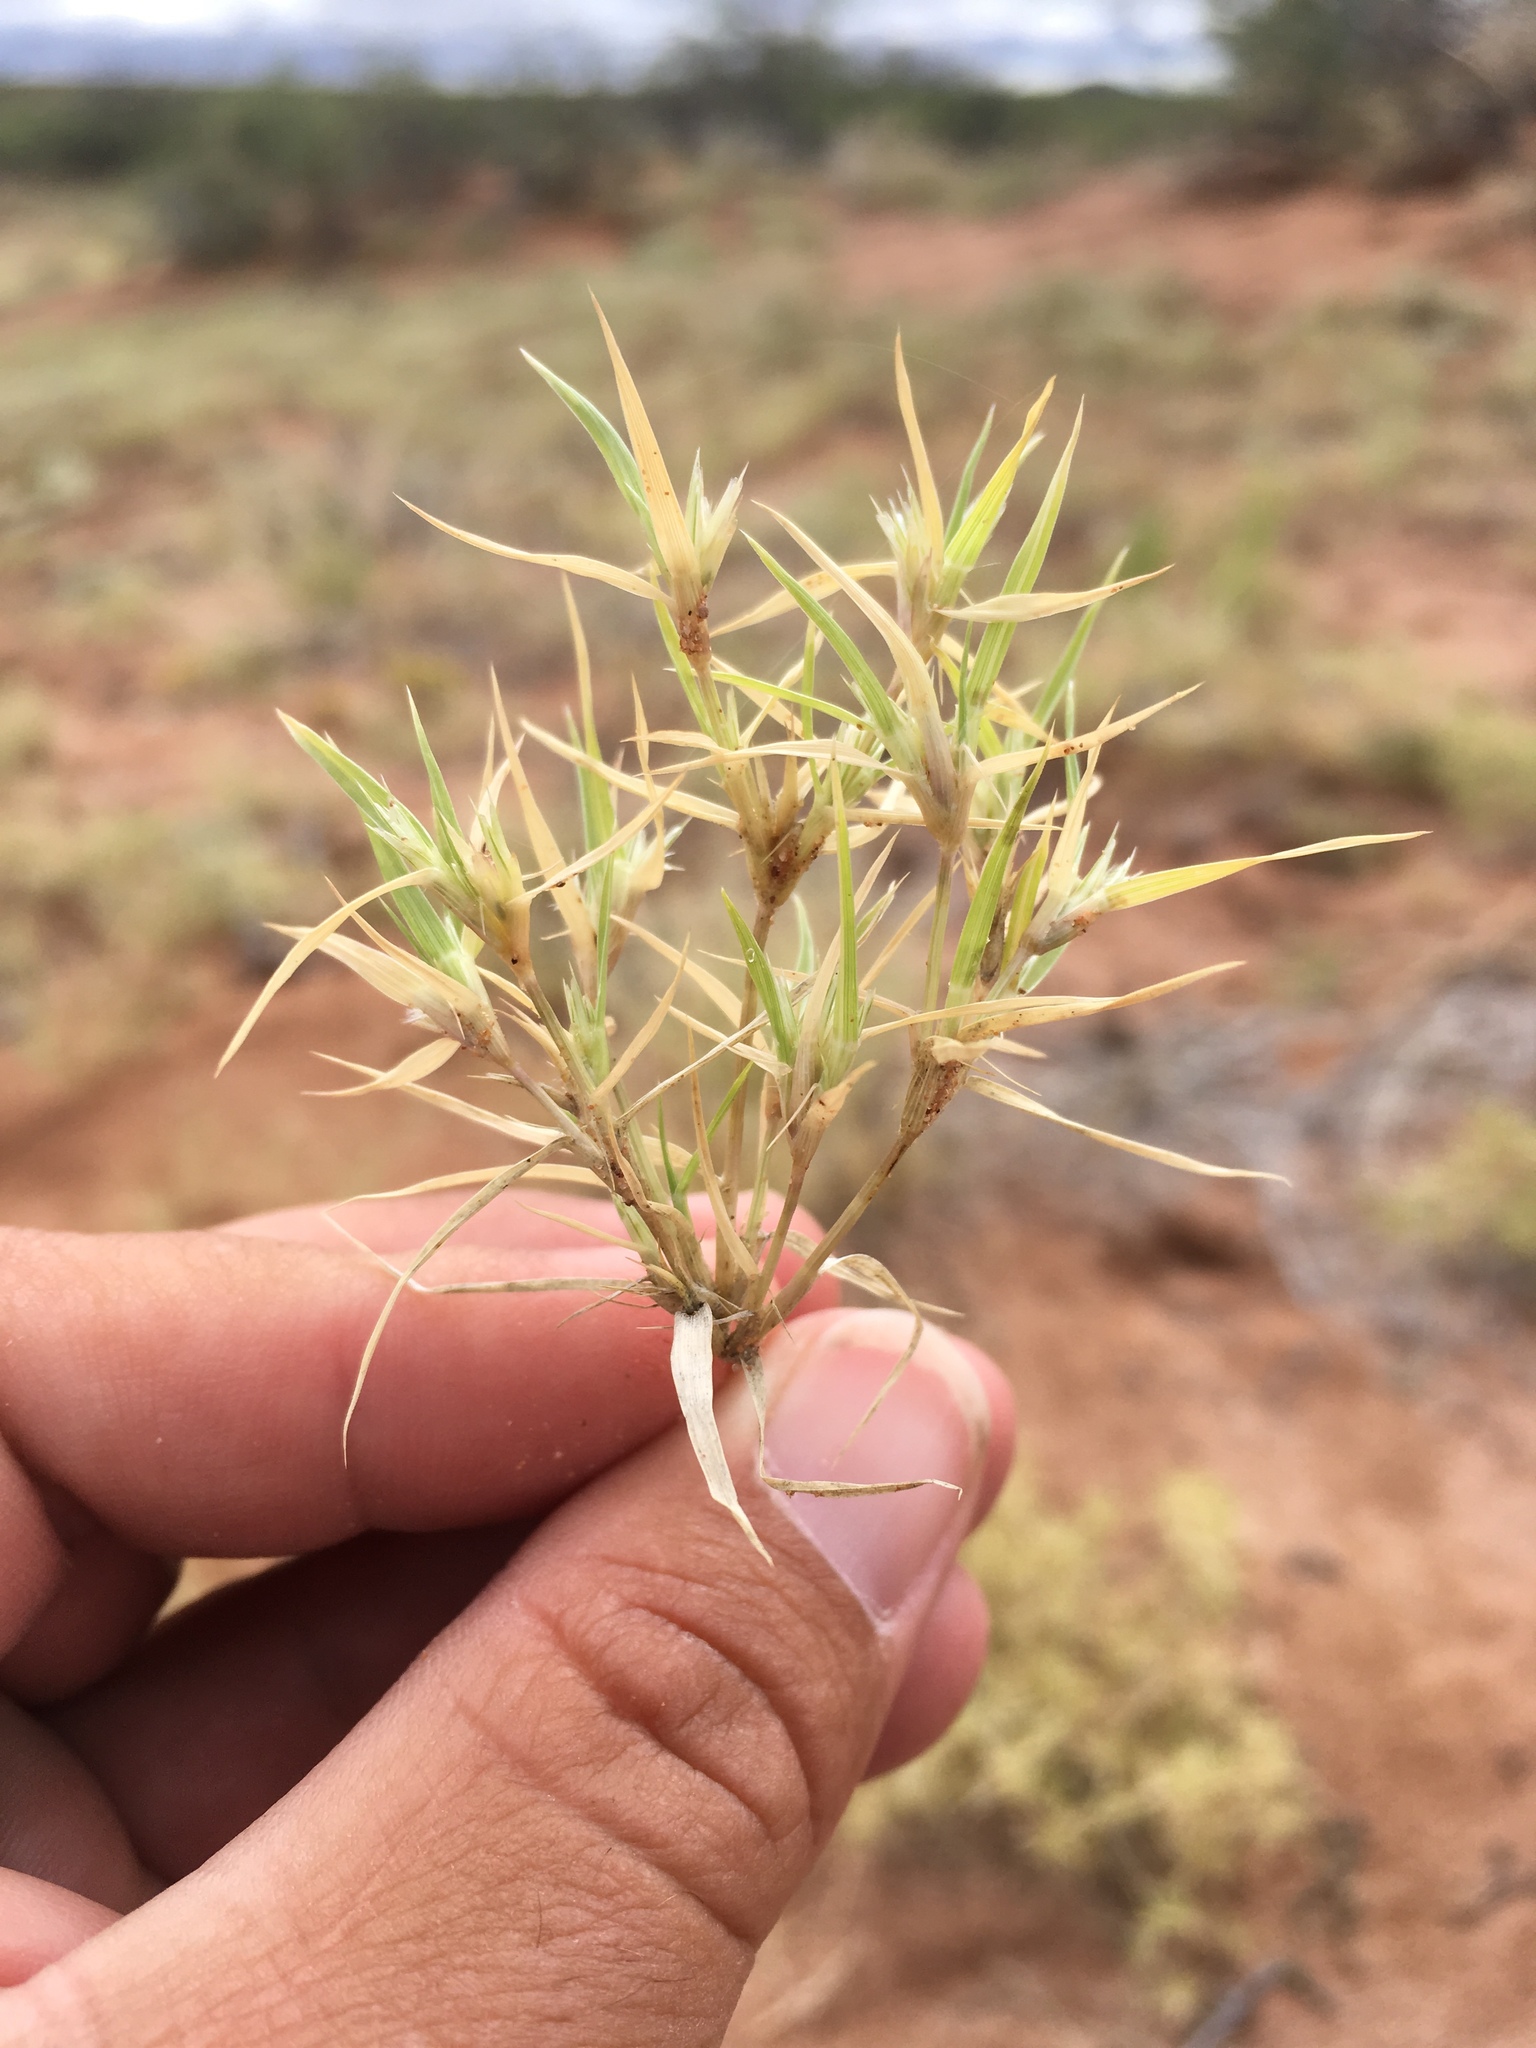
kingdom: Plantae
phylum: Tracheophyta
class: Liliopsida
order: Poales
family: Poaceae
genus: Munroa
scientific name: Munroa squarrosa
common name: False buffalo grass
